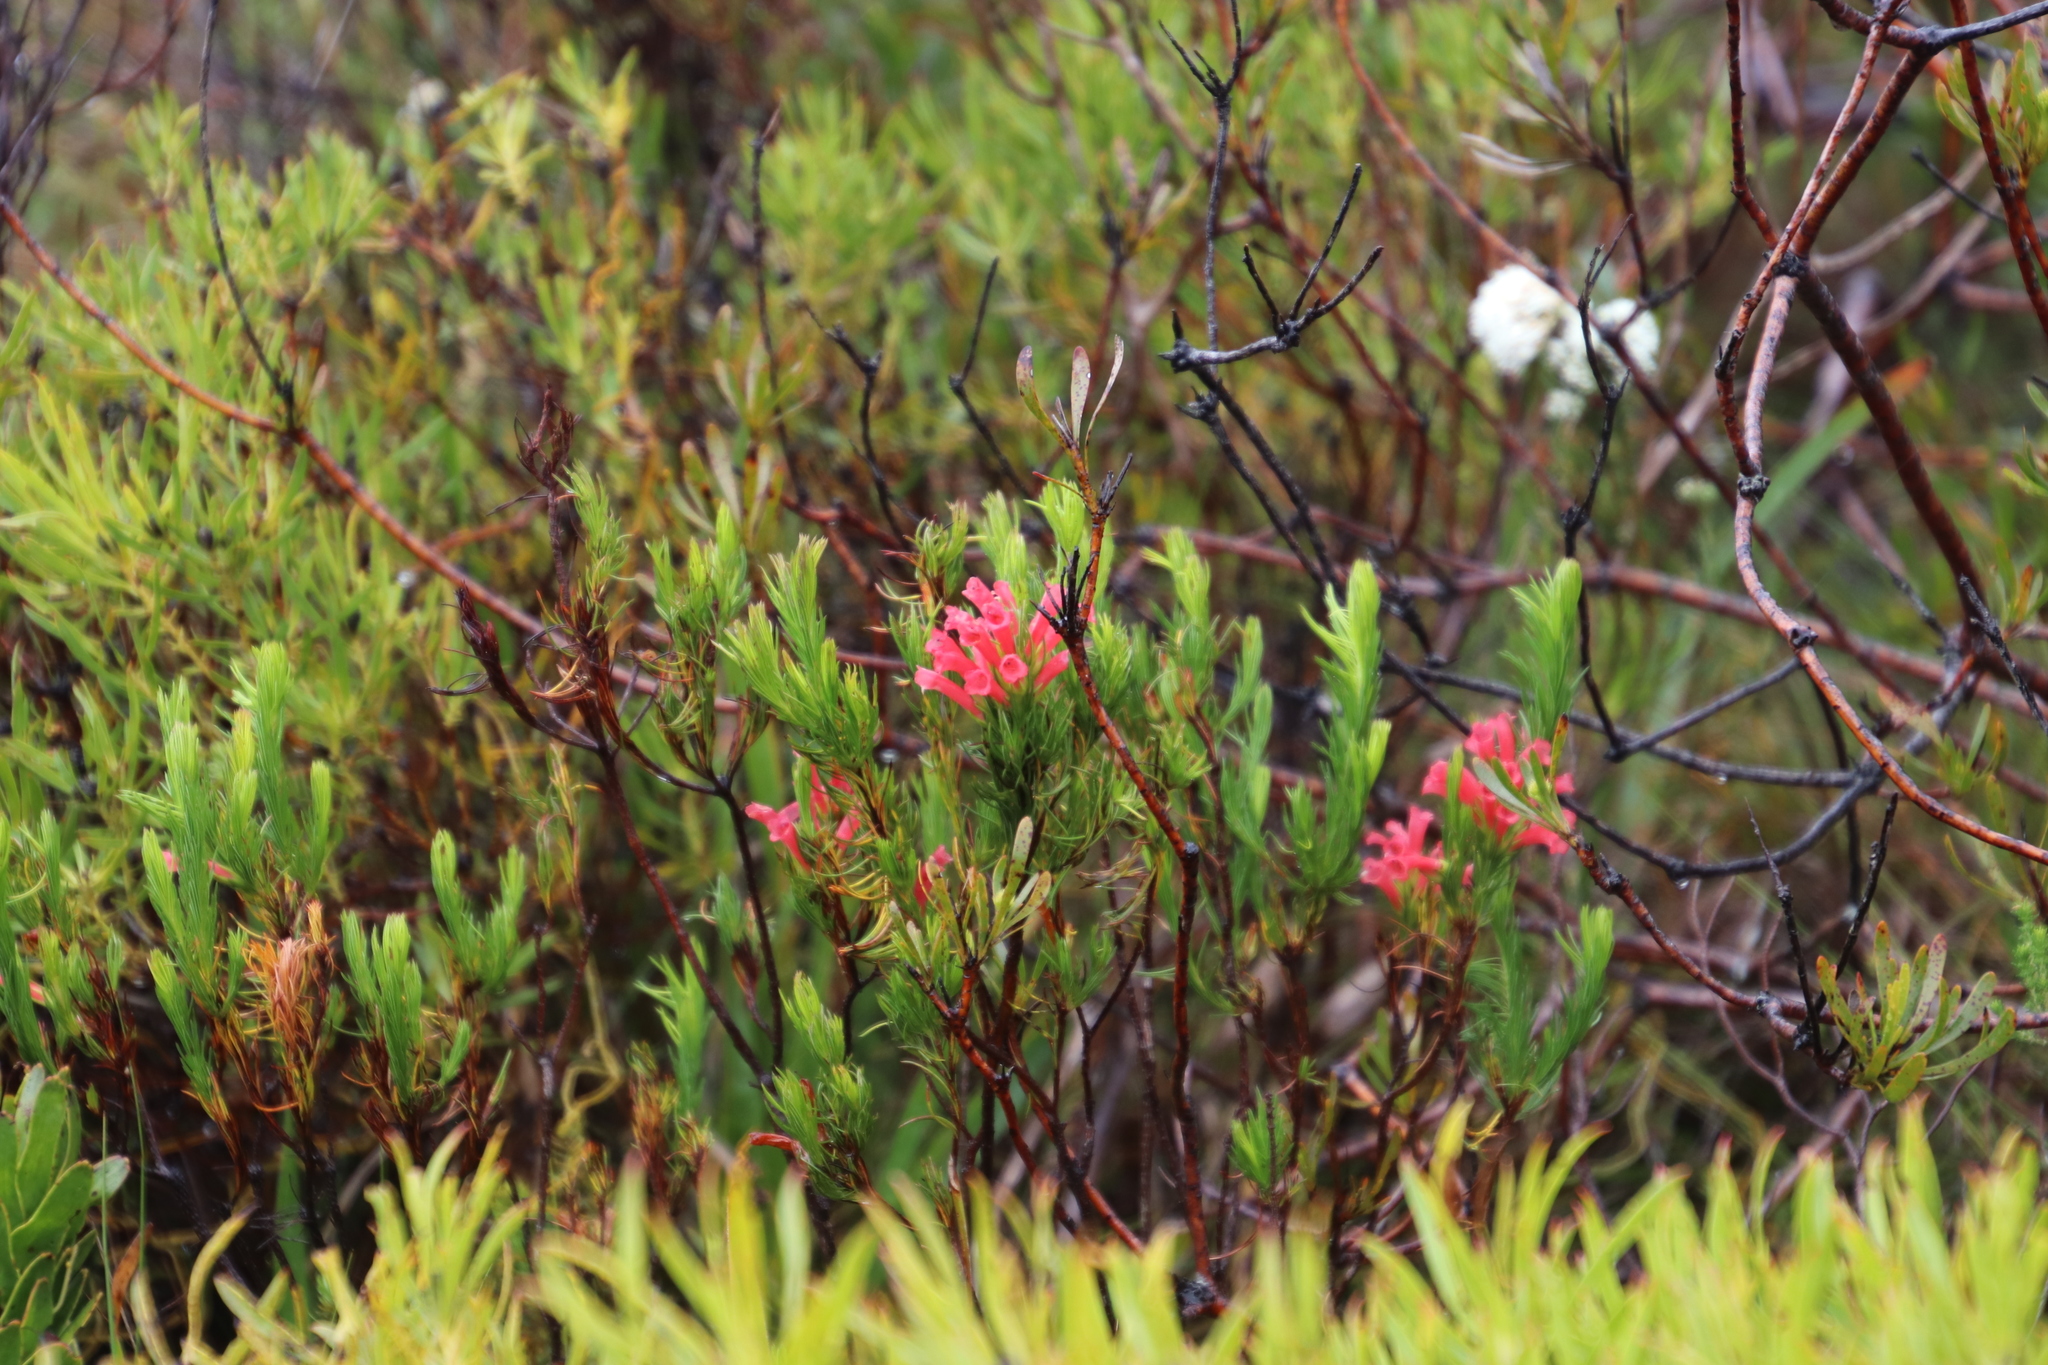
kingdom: Plantae
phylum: Tracheophyta
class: Magnoliopsida
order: Ericales
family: Ericaceae
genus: Erica
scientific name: Erica vestita
